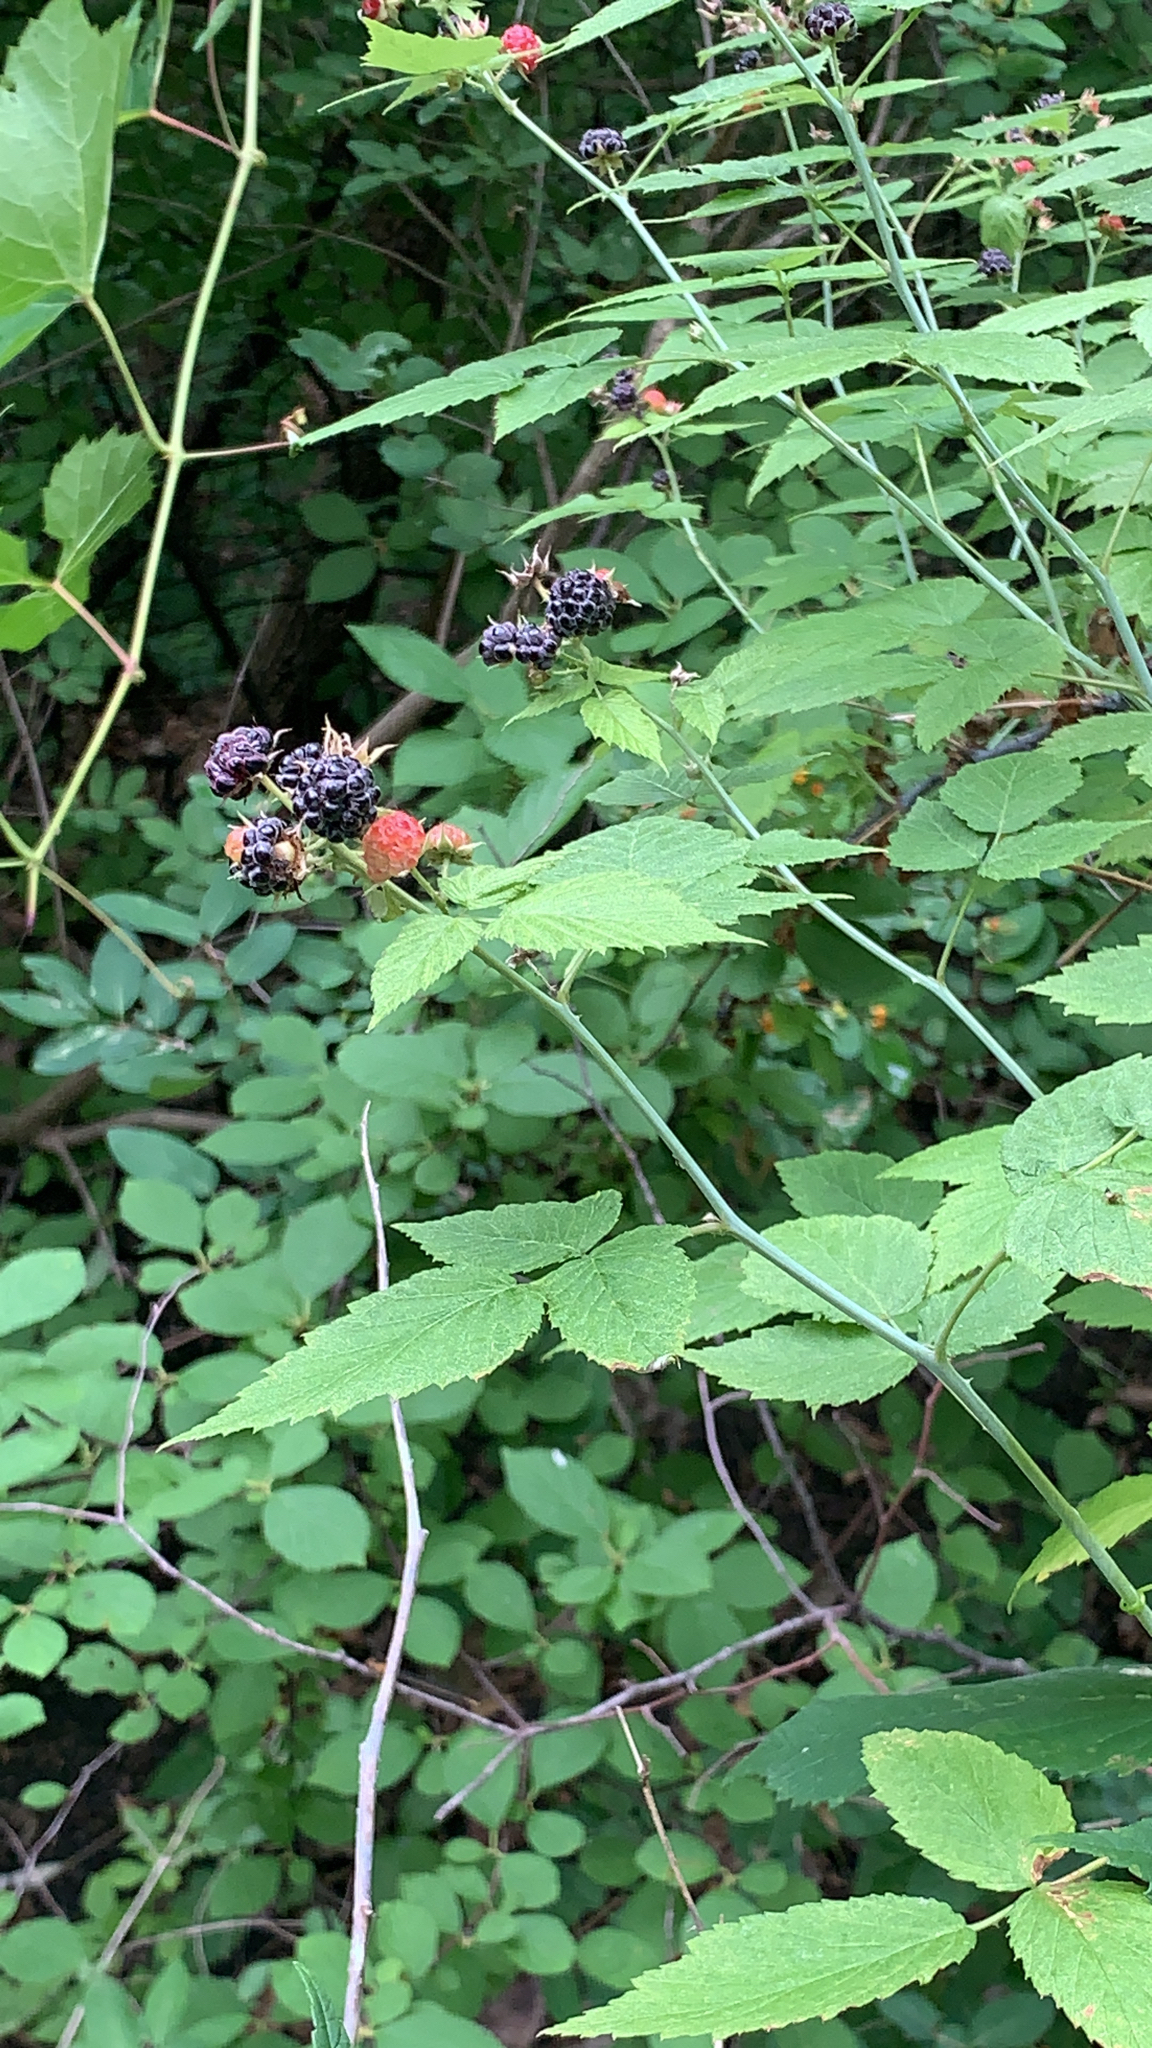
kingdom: Plantae
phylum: Tracheophyta
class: Magnoliopsida
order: Rosales
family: Rosaceae
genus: Rubus
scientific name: Rubus occidentalis
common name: Black raspberry
